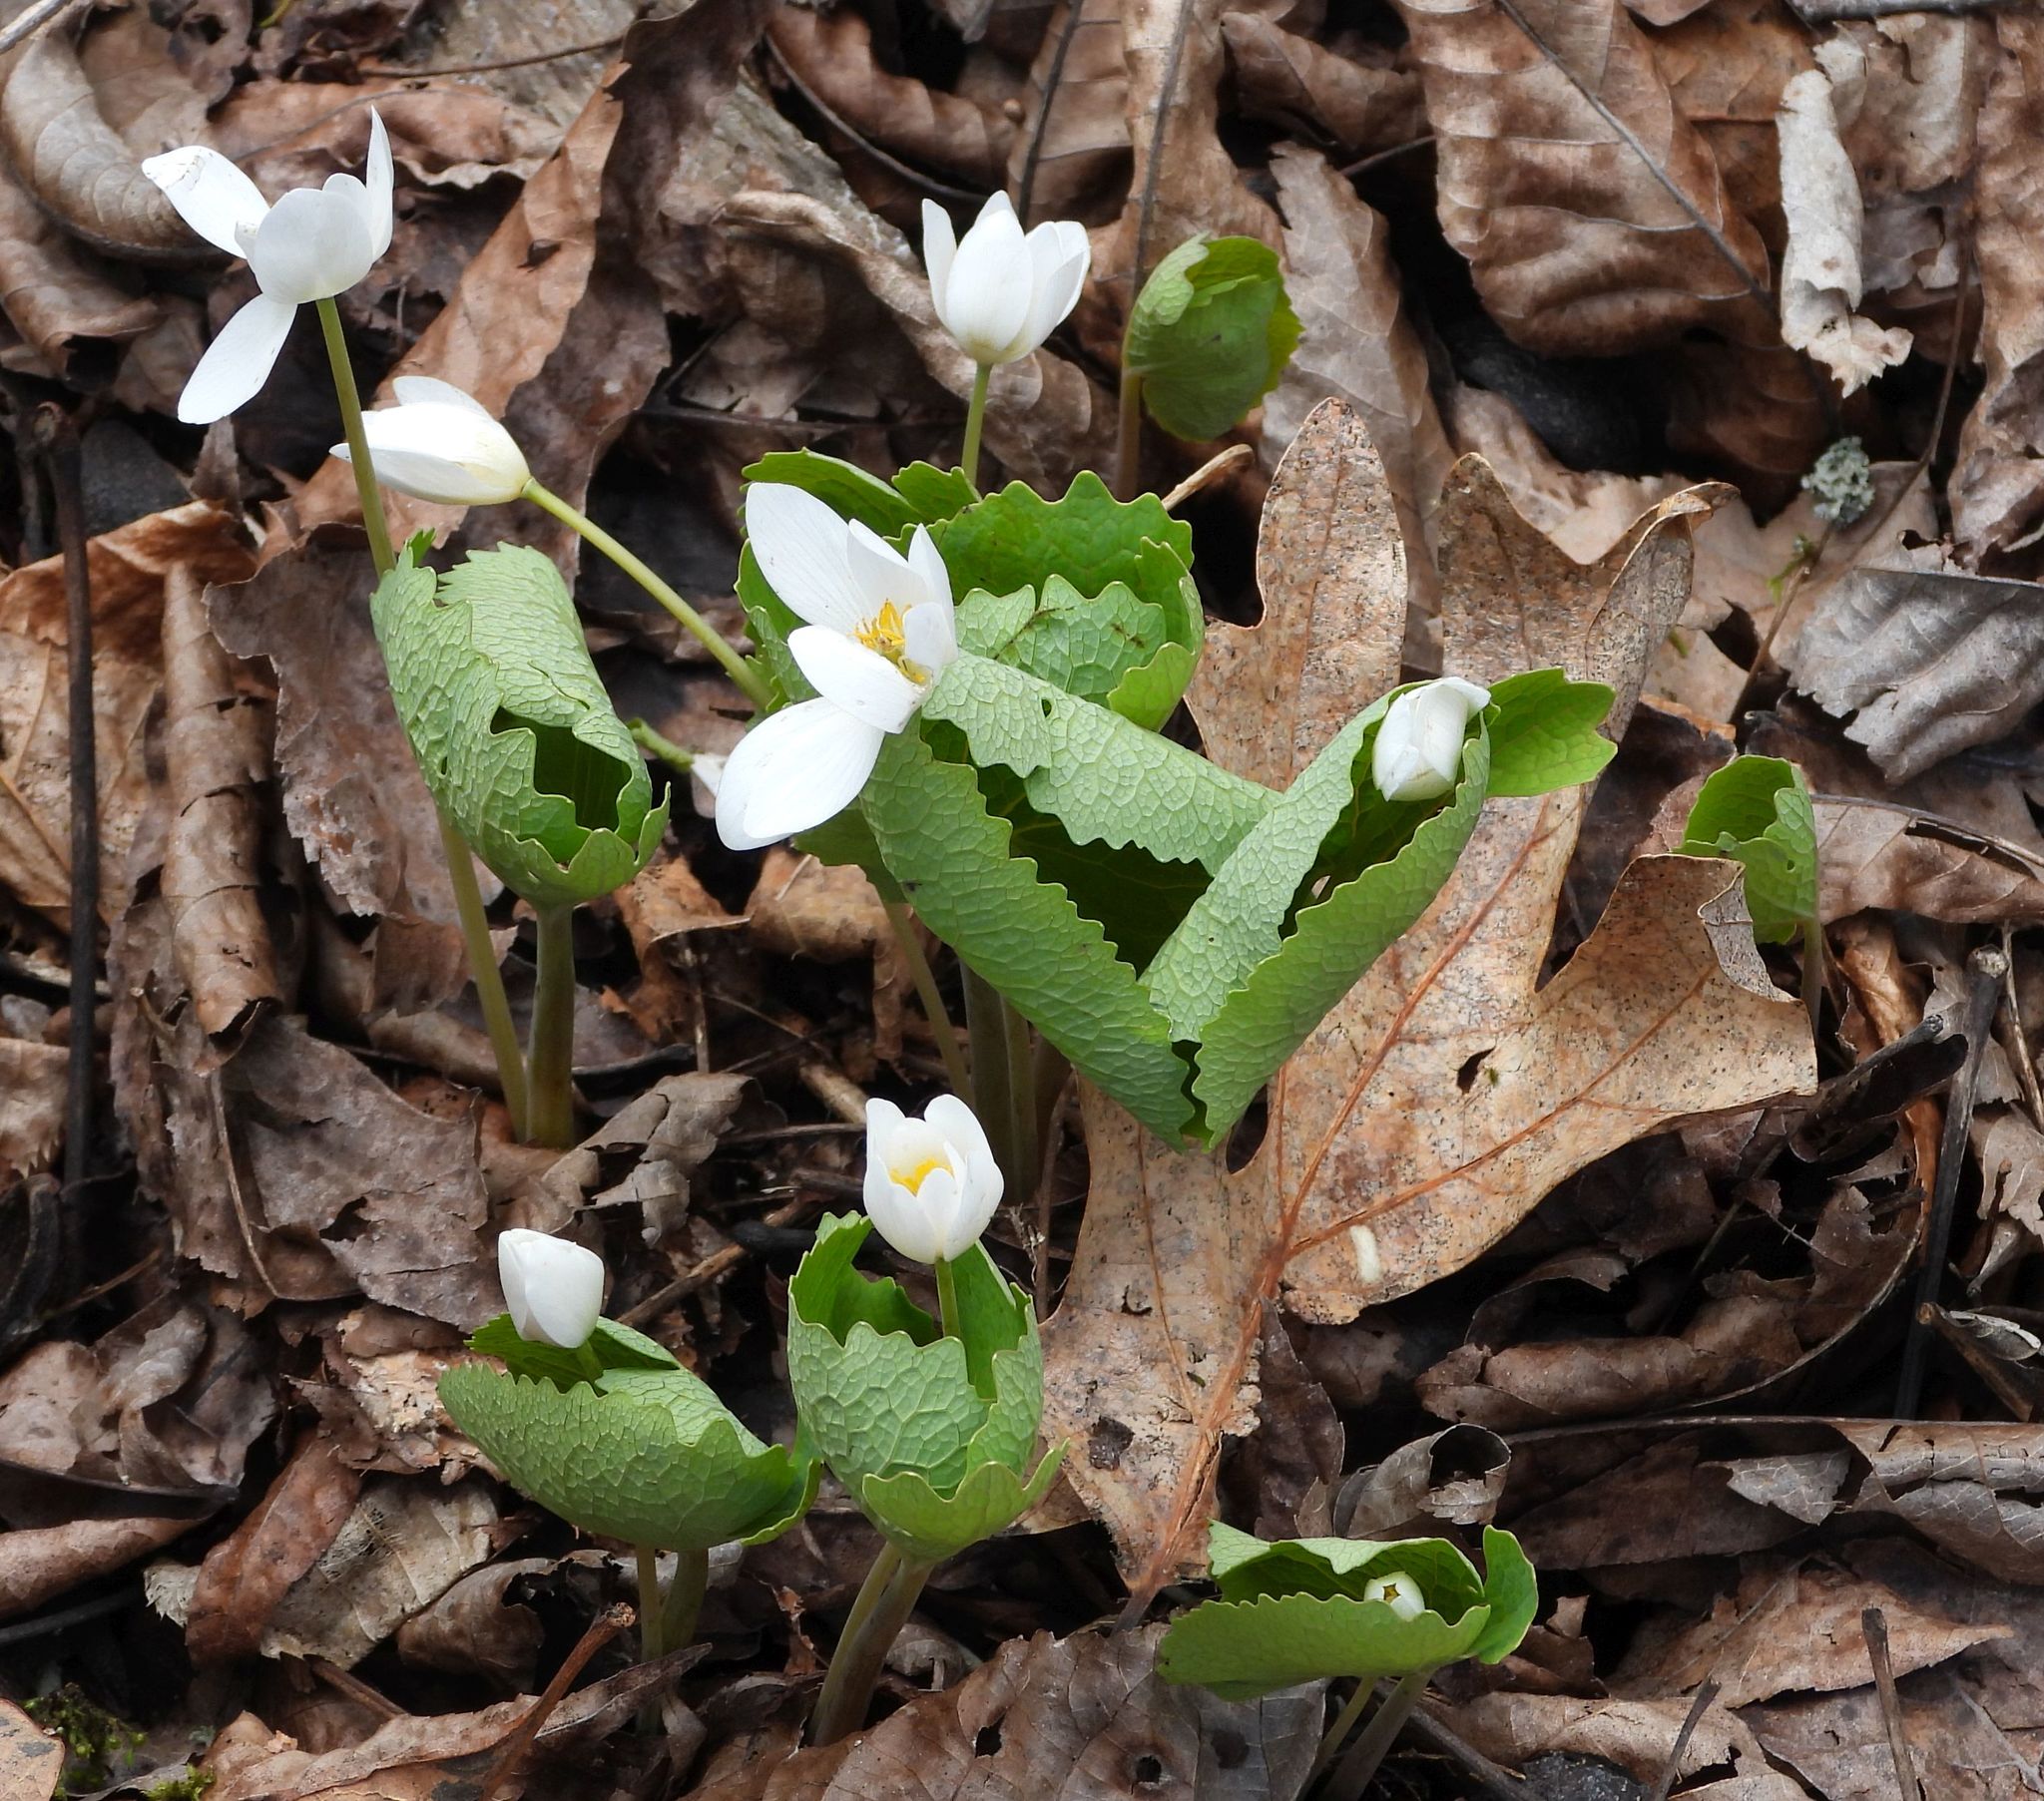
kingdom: Plantae
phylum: Tracheophyta
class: Magnoliopsida
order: Ranunculales
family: Papaveraceae
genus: Sanguinaria
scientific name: Sanguinaria canadensis
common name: Bloodroot
